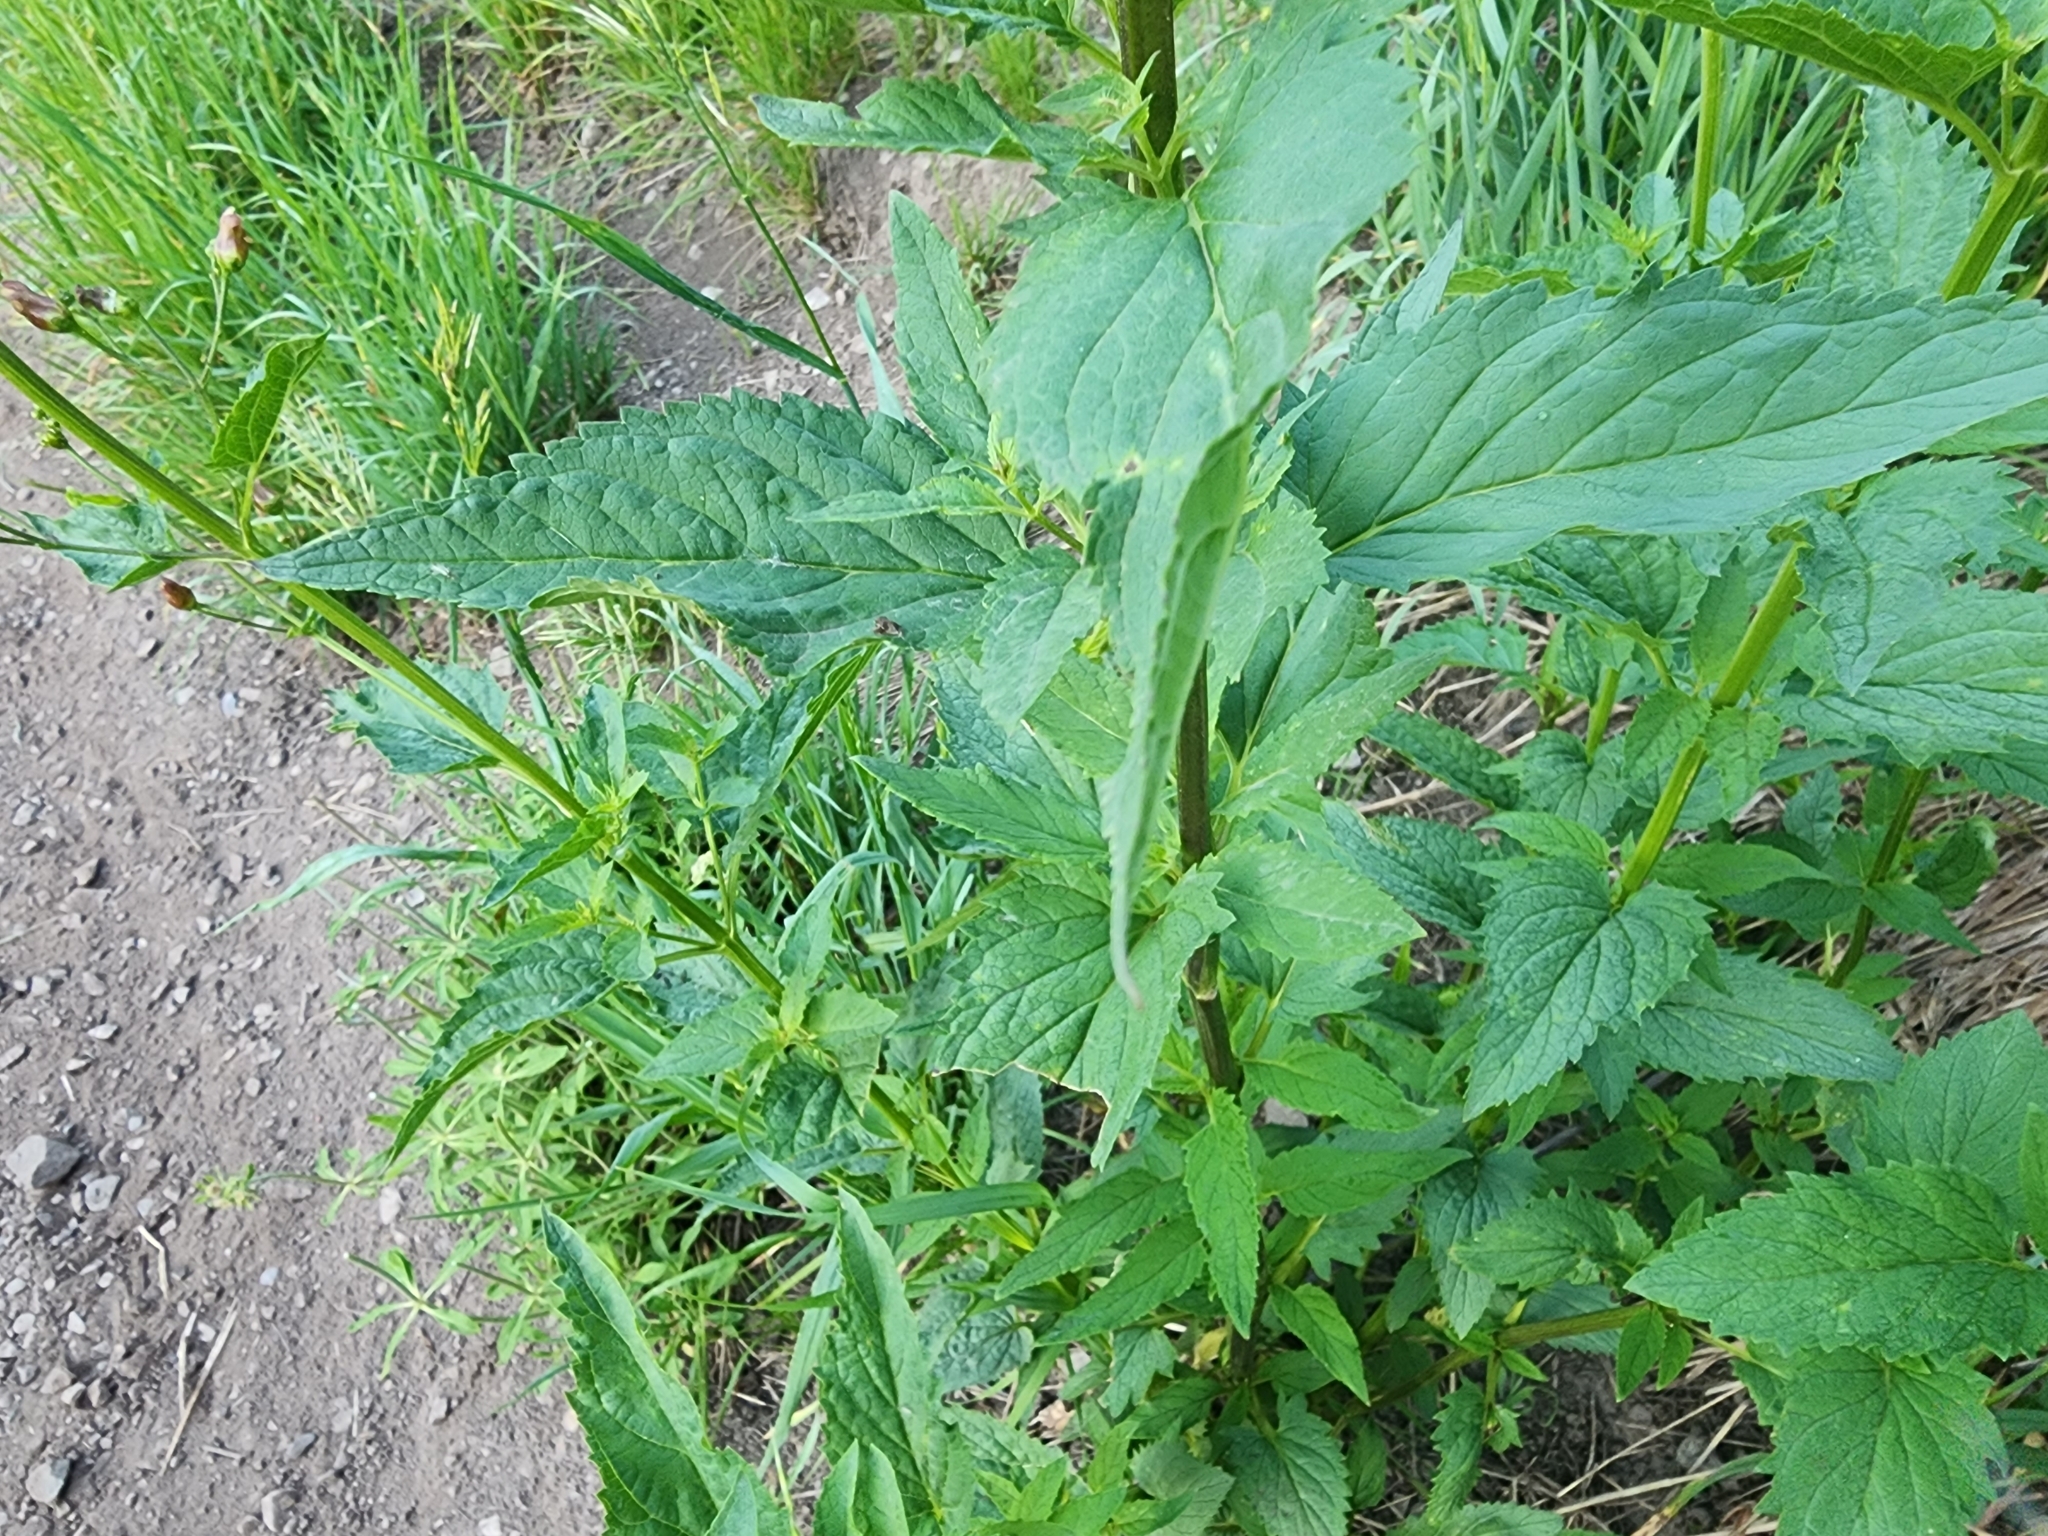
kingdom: Plantae
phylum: Tracheophyta
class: Magnoliopsida
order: Lamiales
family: Scrophulariaceae
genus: Scrophularia
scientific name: Scrophularia lanceolata
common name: American figwort
